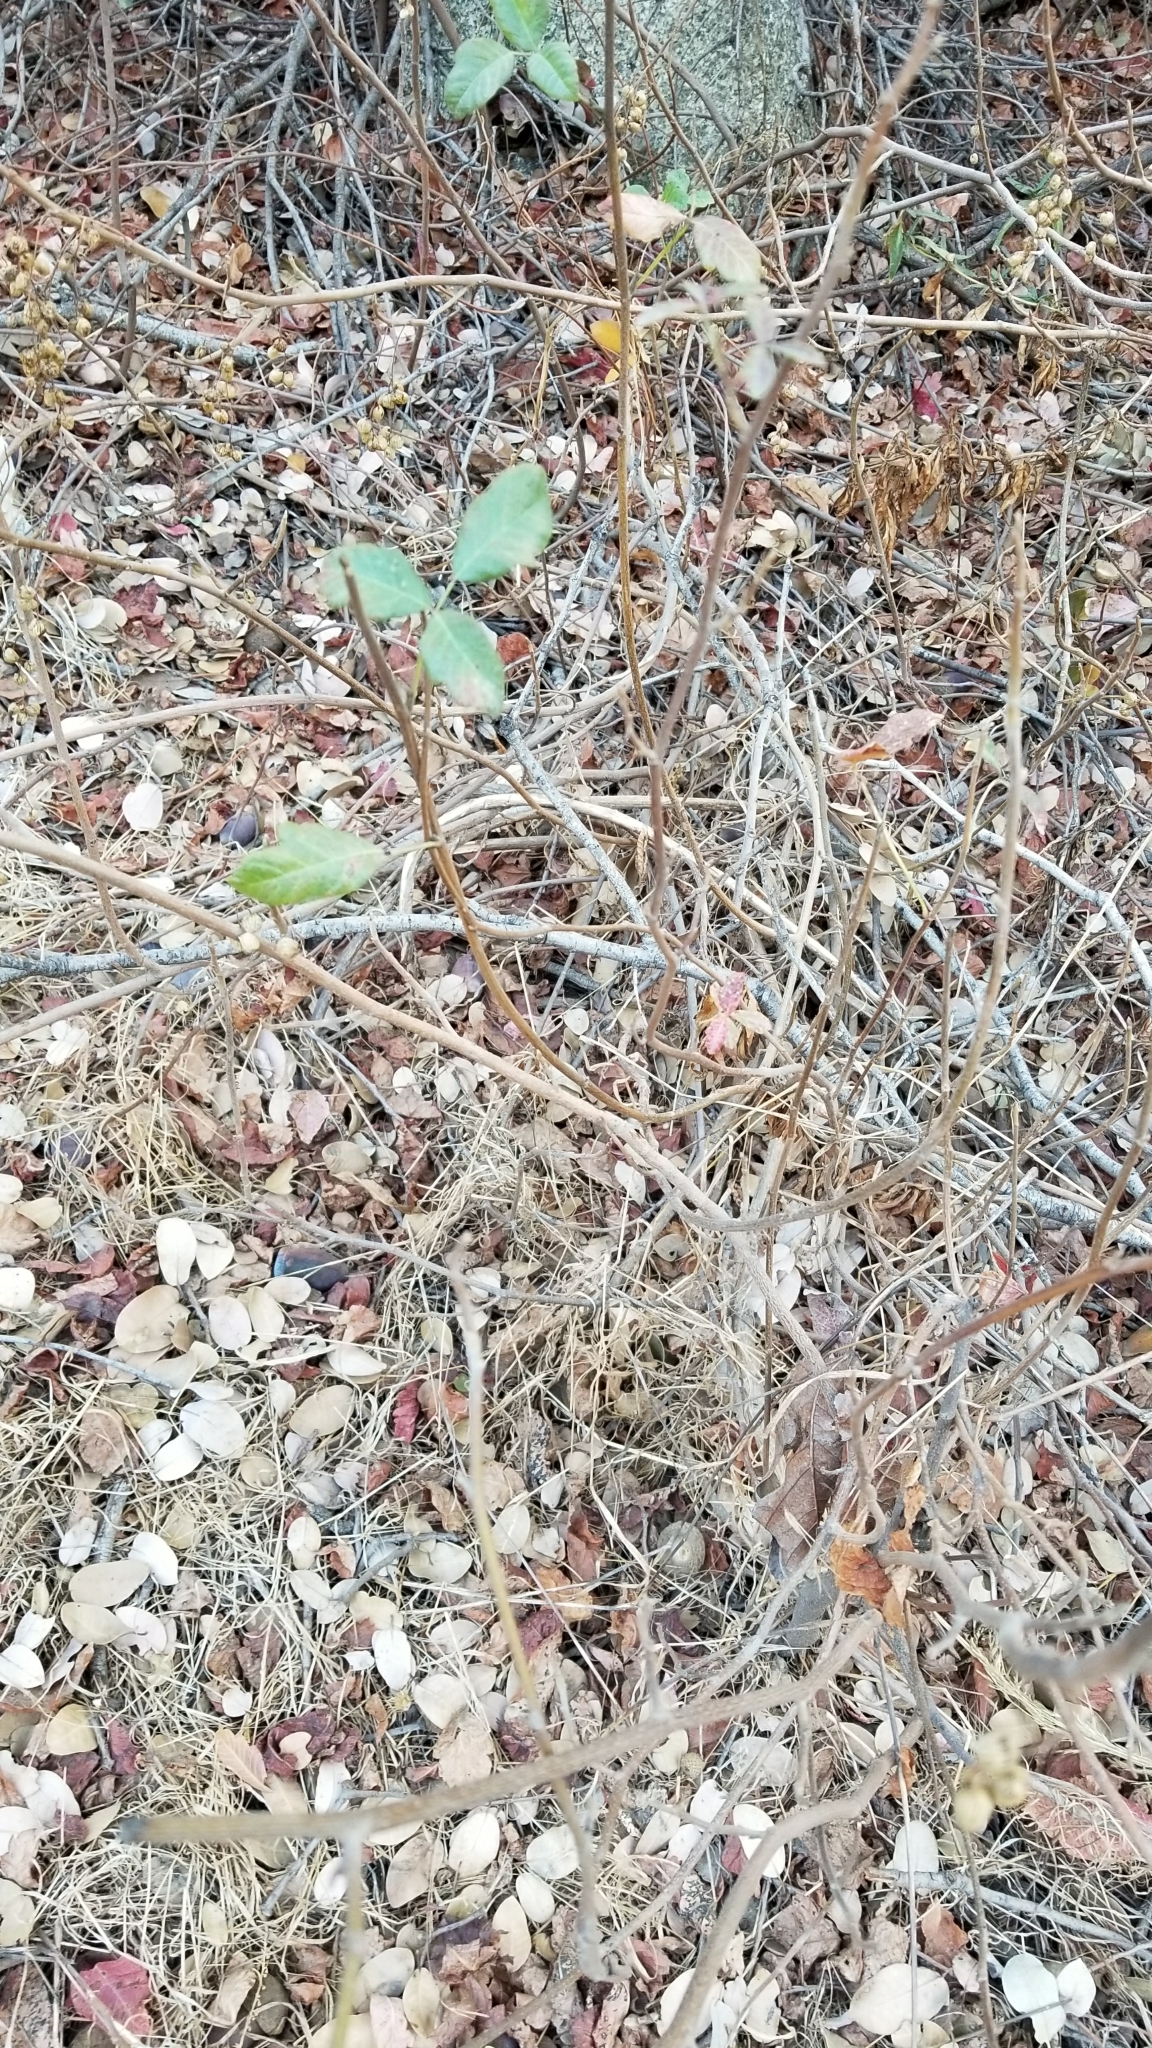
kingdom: Plantae
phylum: Tracheophyta
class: Magnoliopsida
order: Sapindales
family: Anacardiaceae
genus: Toxicodendron
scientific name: Toxicodendron diversilobum
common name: Pacific poison-oak
